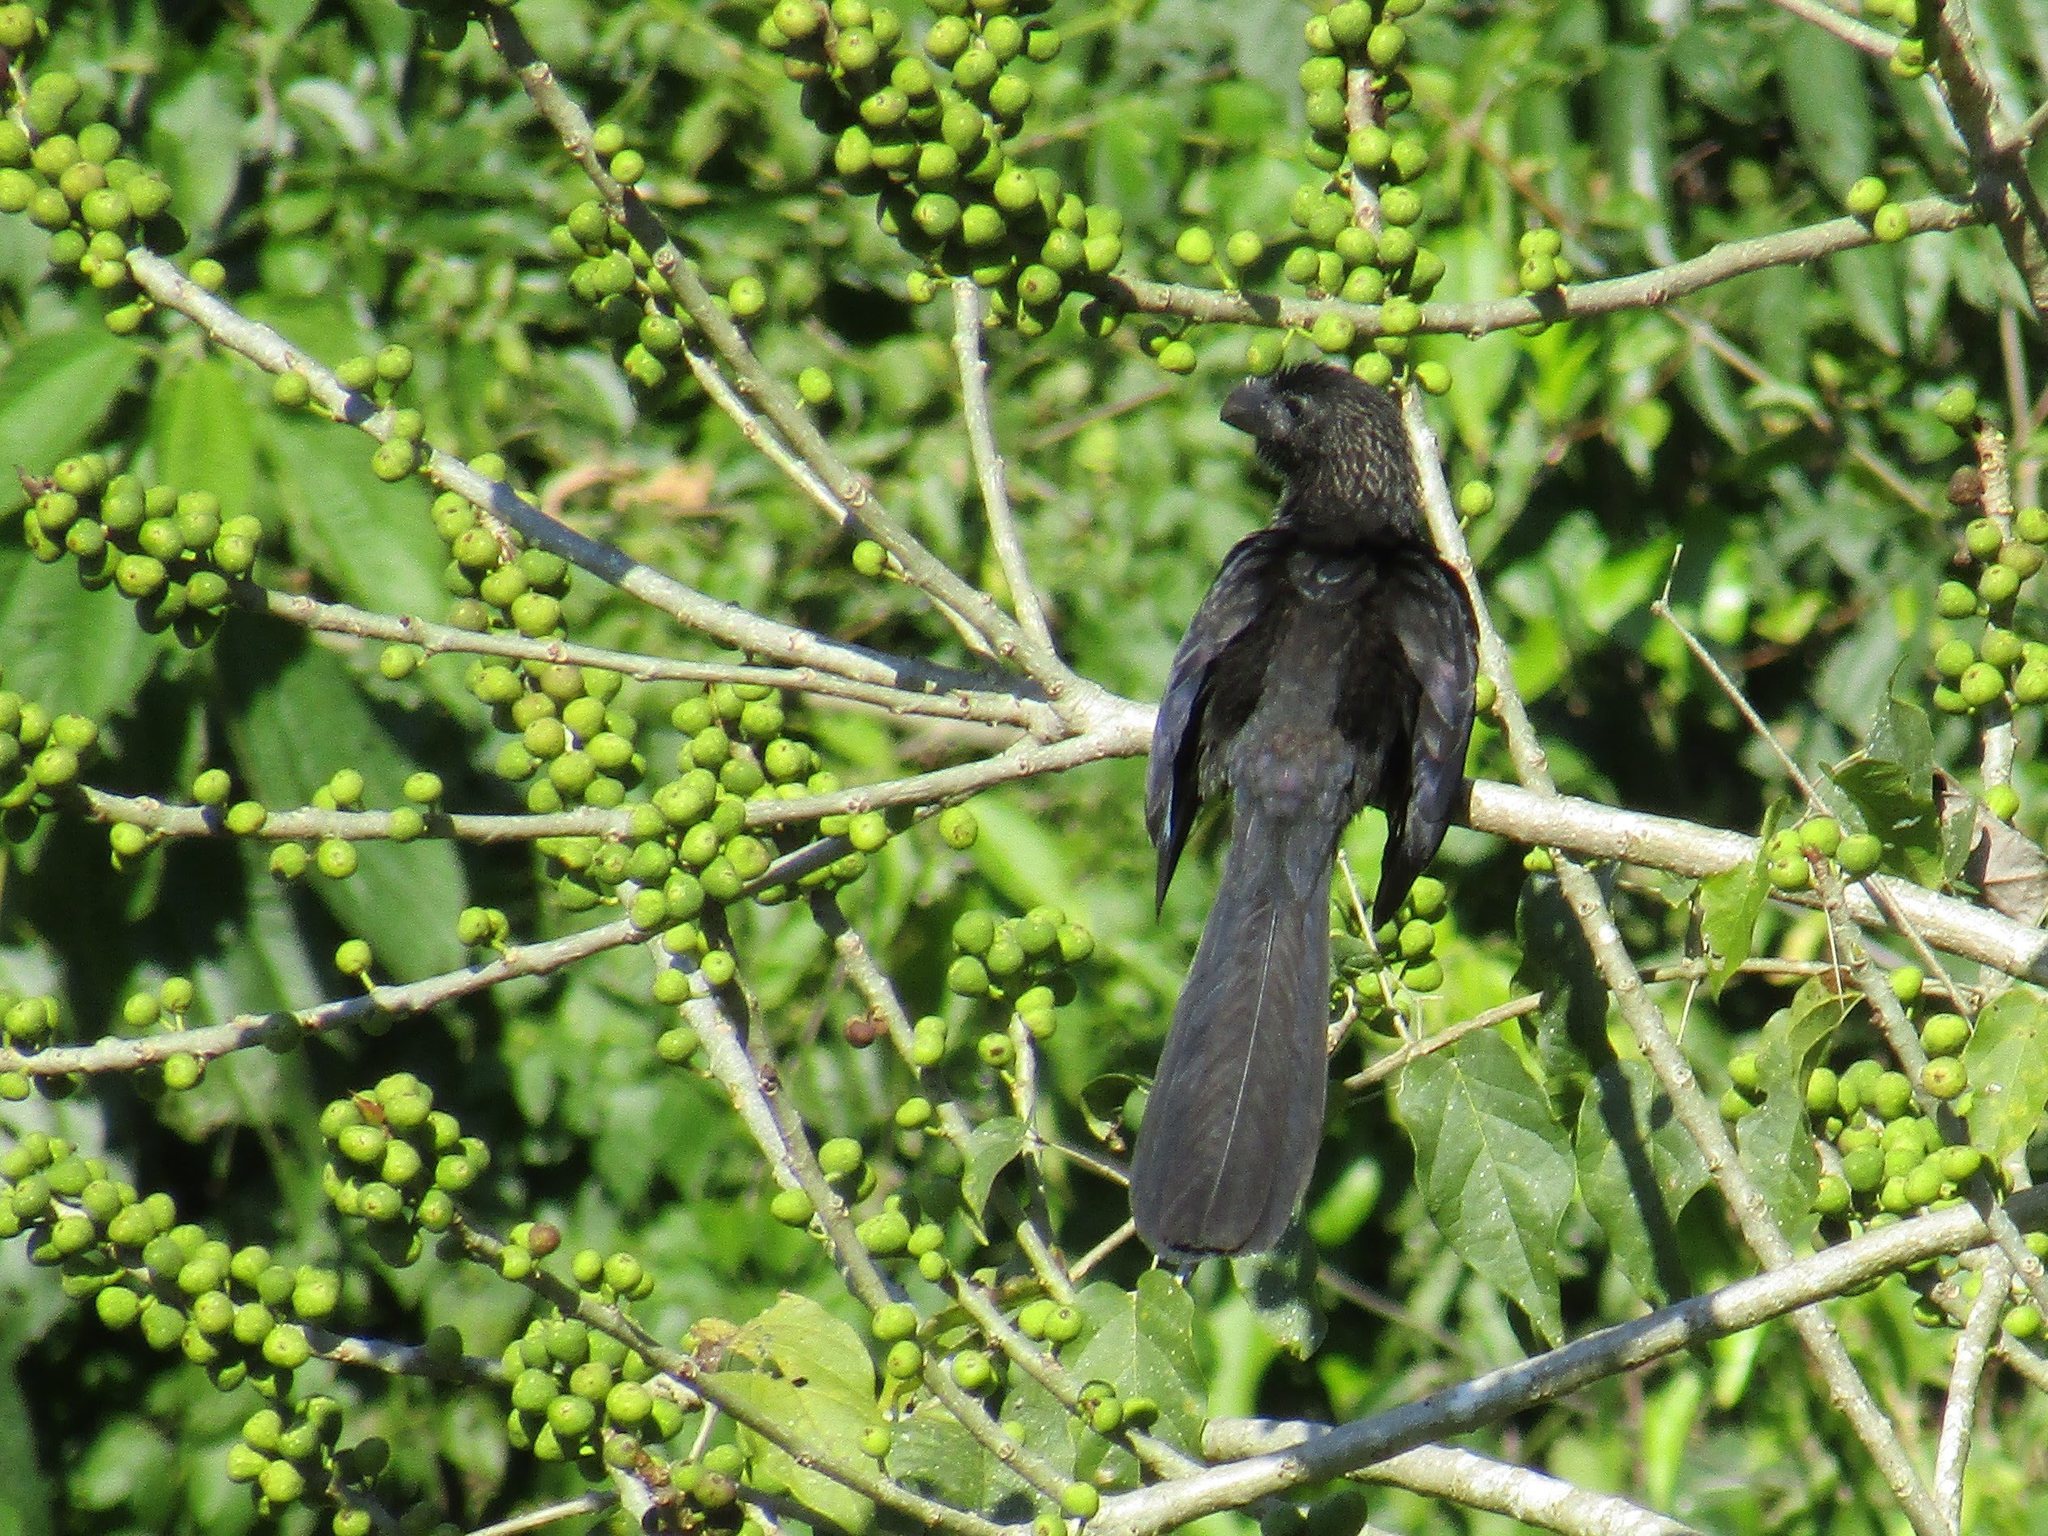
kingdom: Animalia
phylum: Chordata
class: Aves
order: Cuculiformes
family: Cuculidae
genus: Crotophaga
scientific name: Crotophaga ani
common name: Smooth-billed ani
